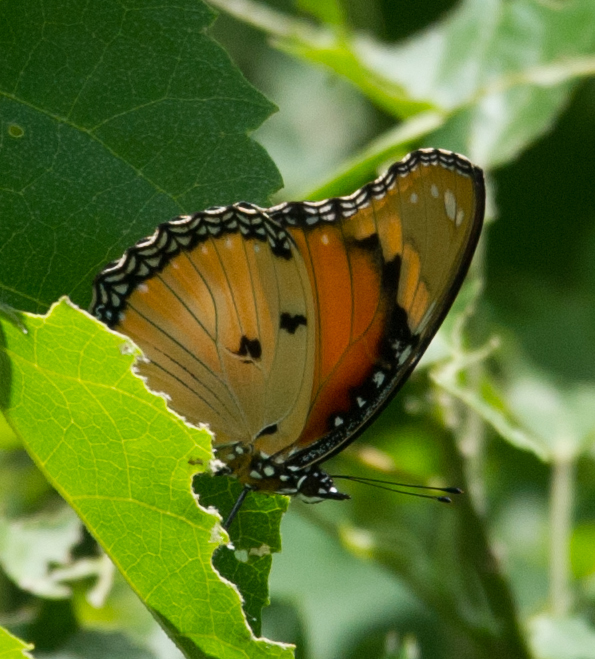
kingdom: Animalia
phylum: Arthropoda
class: Insecta
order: Lepidoptera
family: Nymphalidae
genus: Hypolimnas
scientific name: Hypolimnas misippus
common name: False plain tiger
